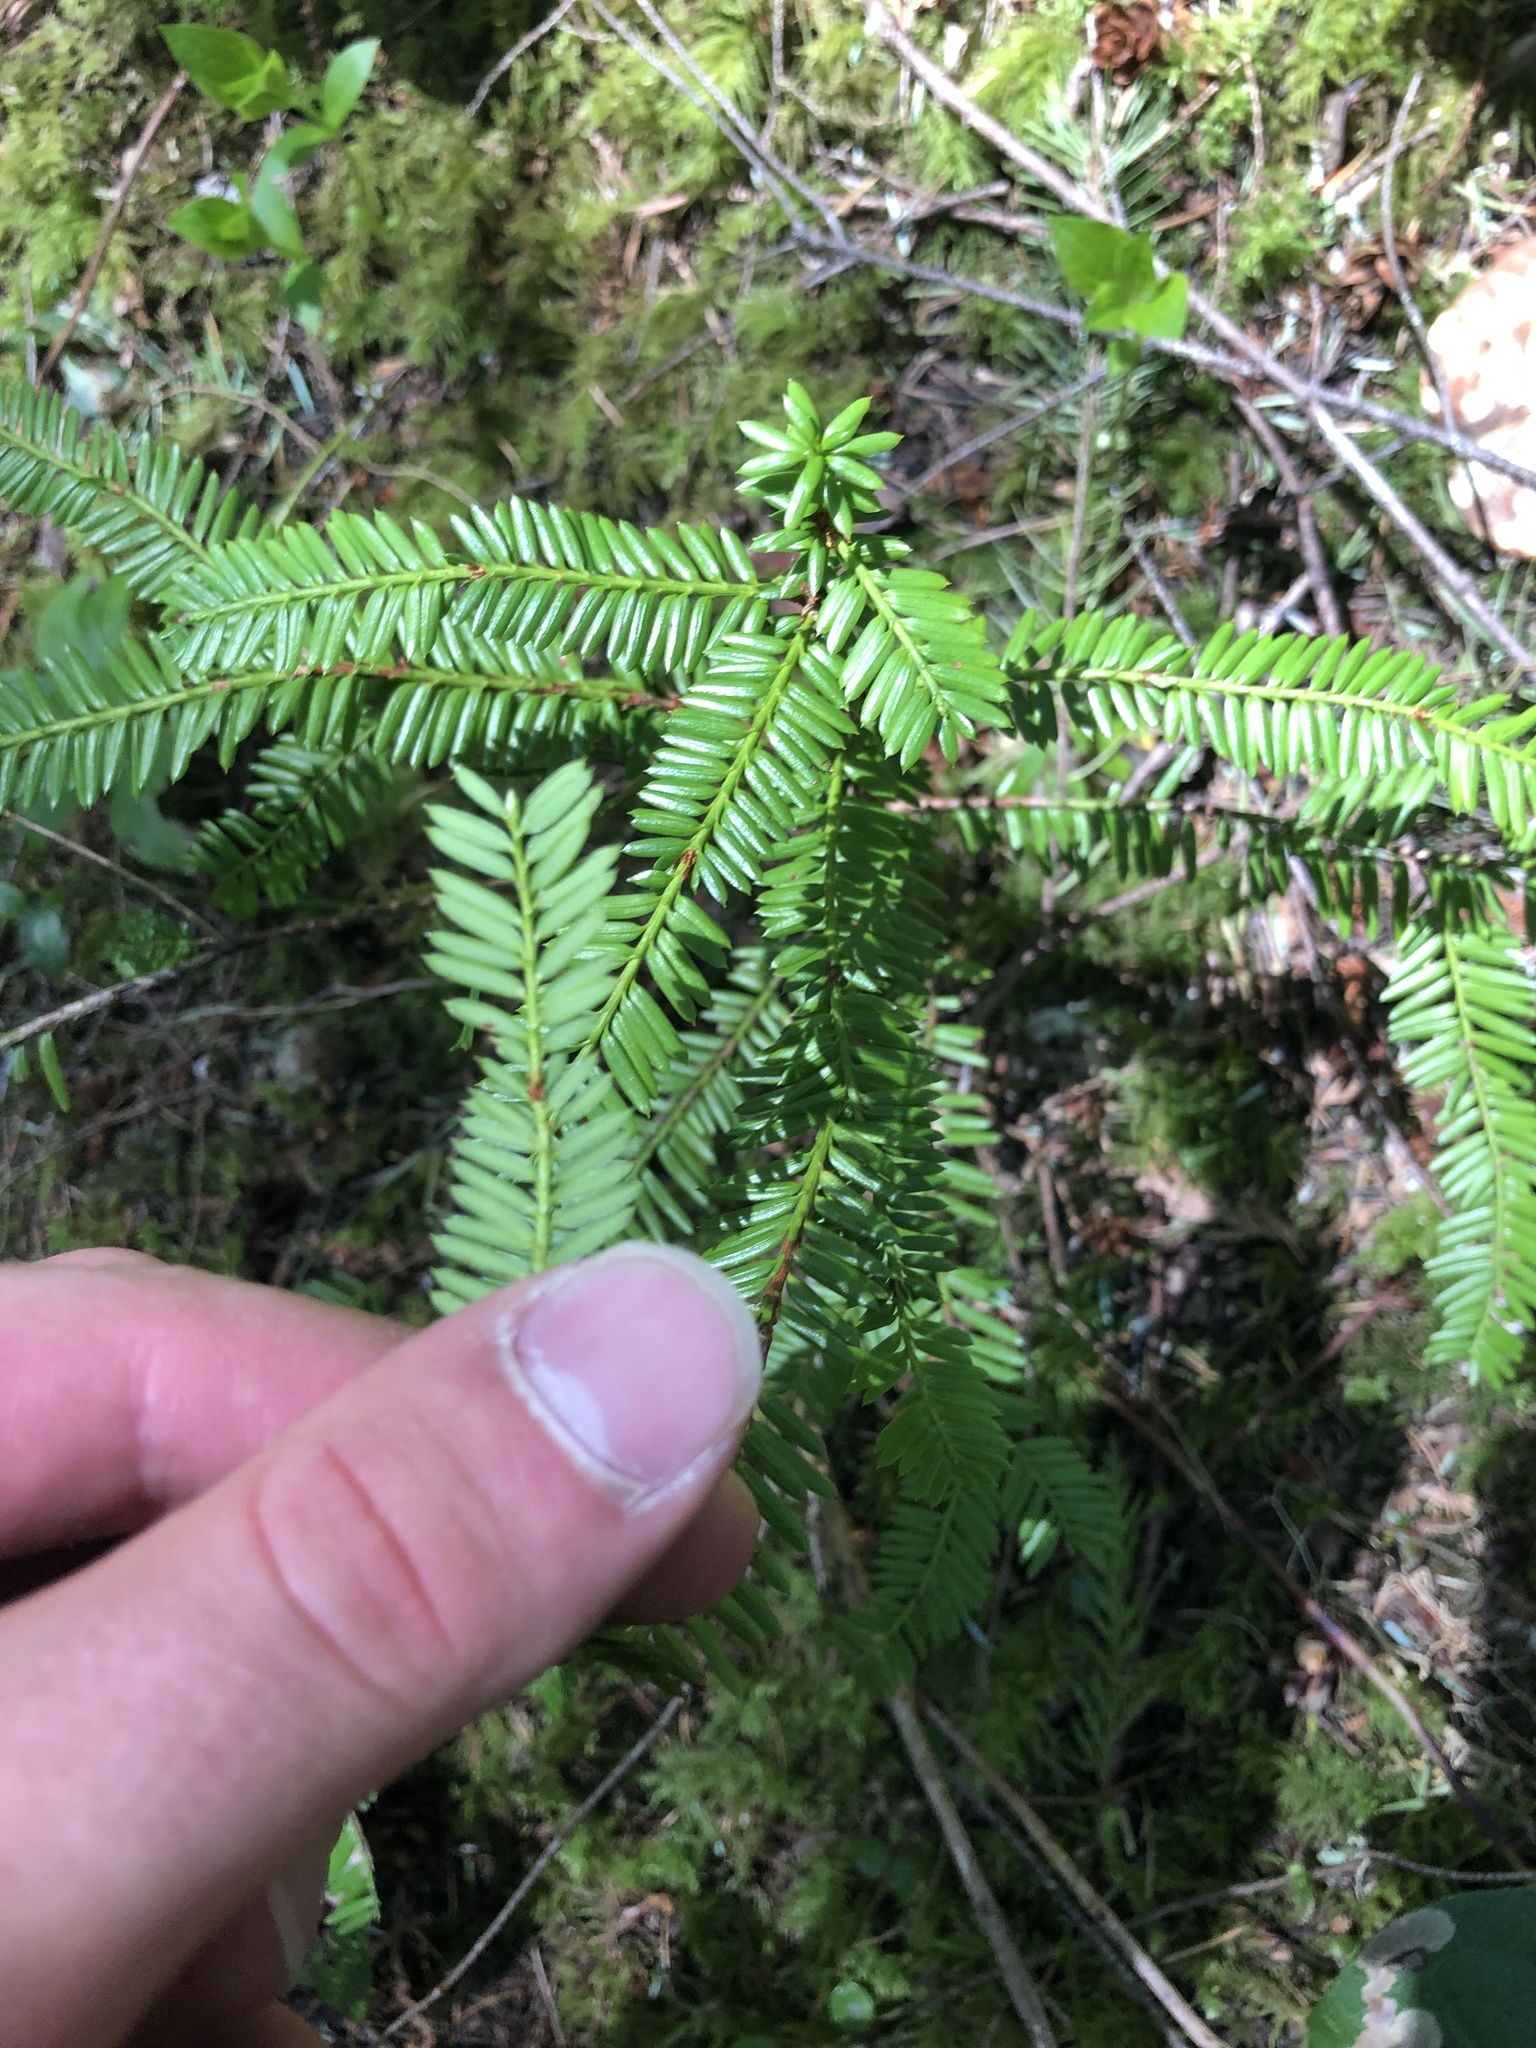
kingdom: Plantae
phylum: Tracheophyta
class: Pinopsida
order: Pinales
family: Taxaceae
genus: Taxus
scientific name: Taxus brevifolia
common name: Pacific yew
